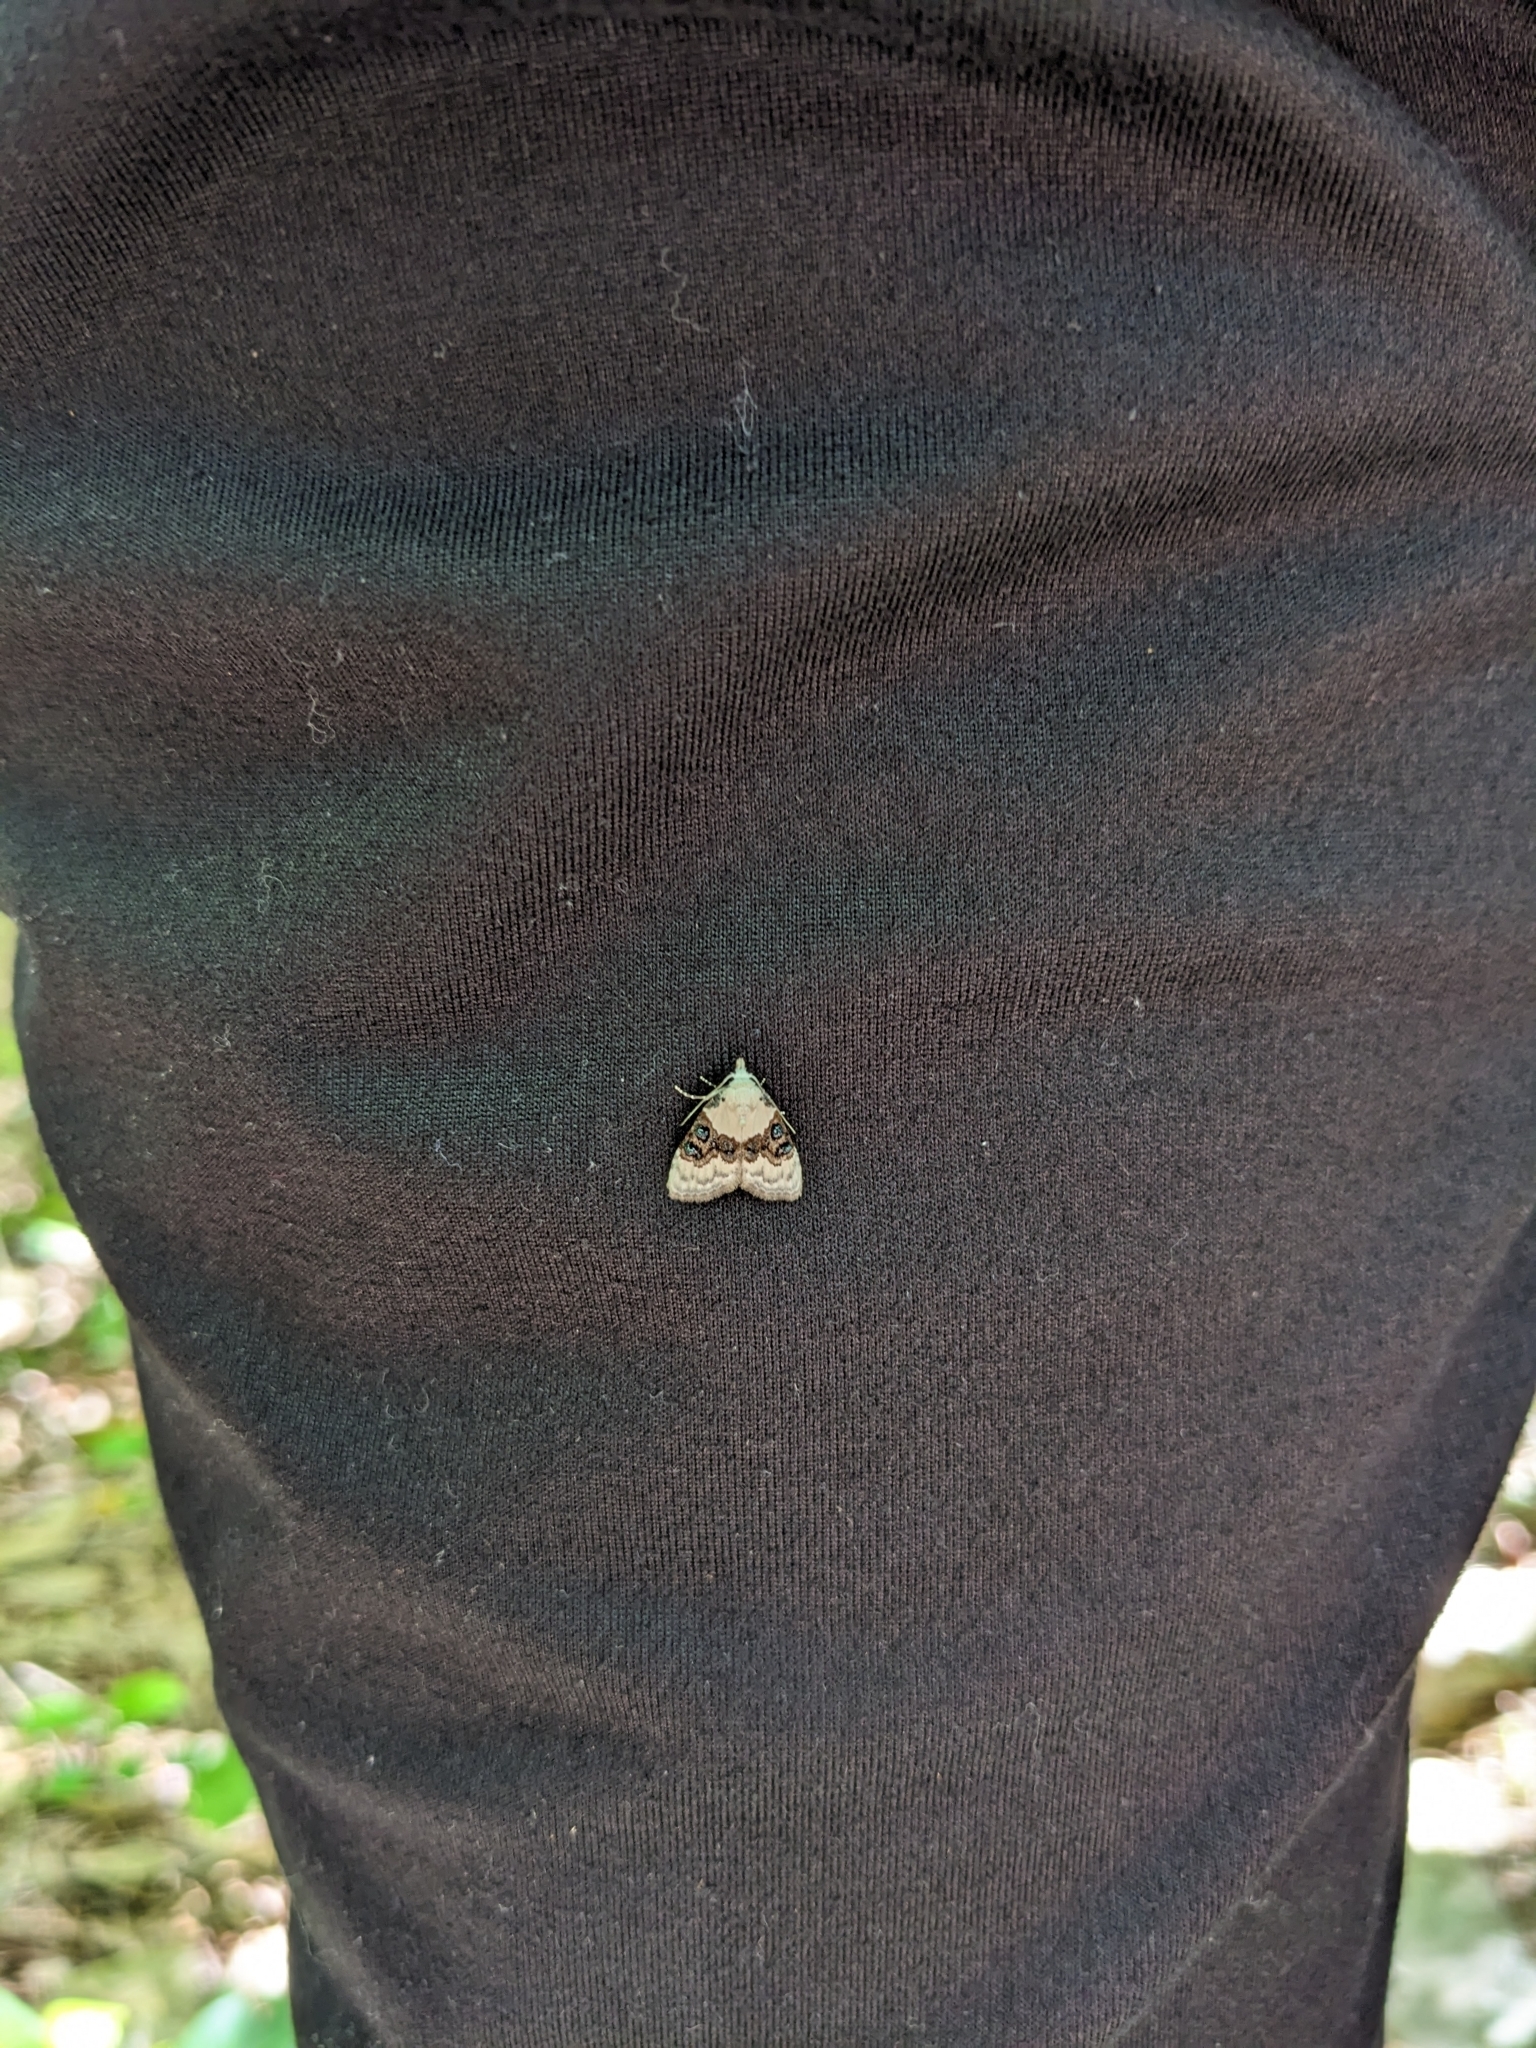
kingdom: Animalia
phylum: Arthropoda
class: Insecta
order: Lepidoptera
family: Nolidae
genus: Nola
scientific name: Nola pustulata
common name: Sharp-blotched nola moth
